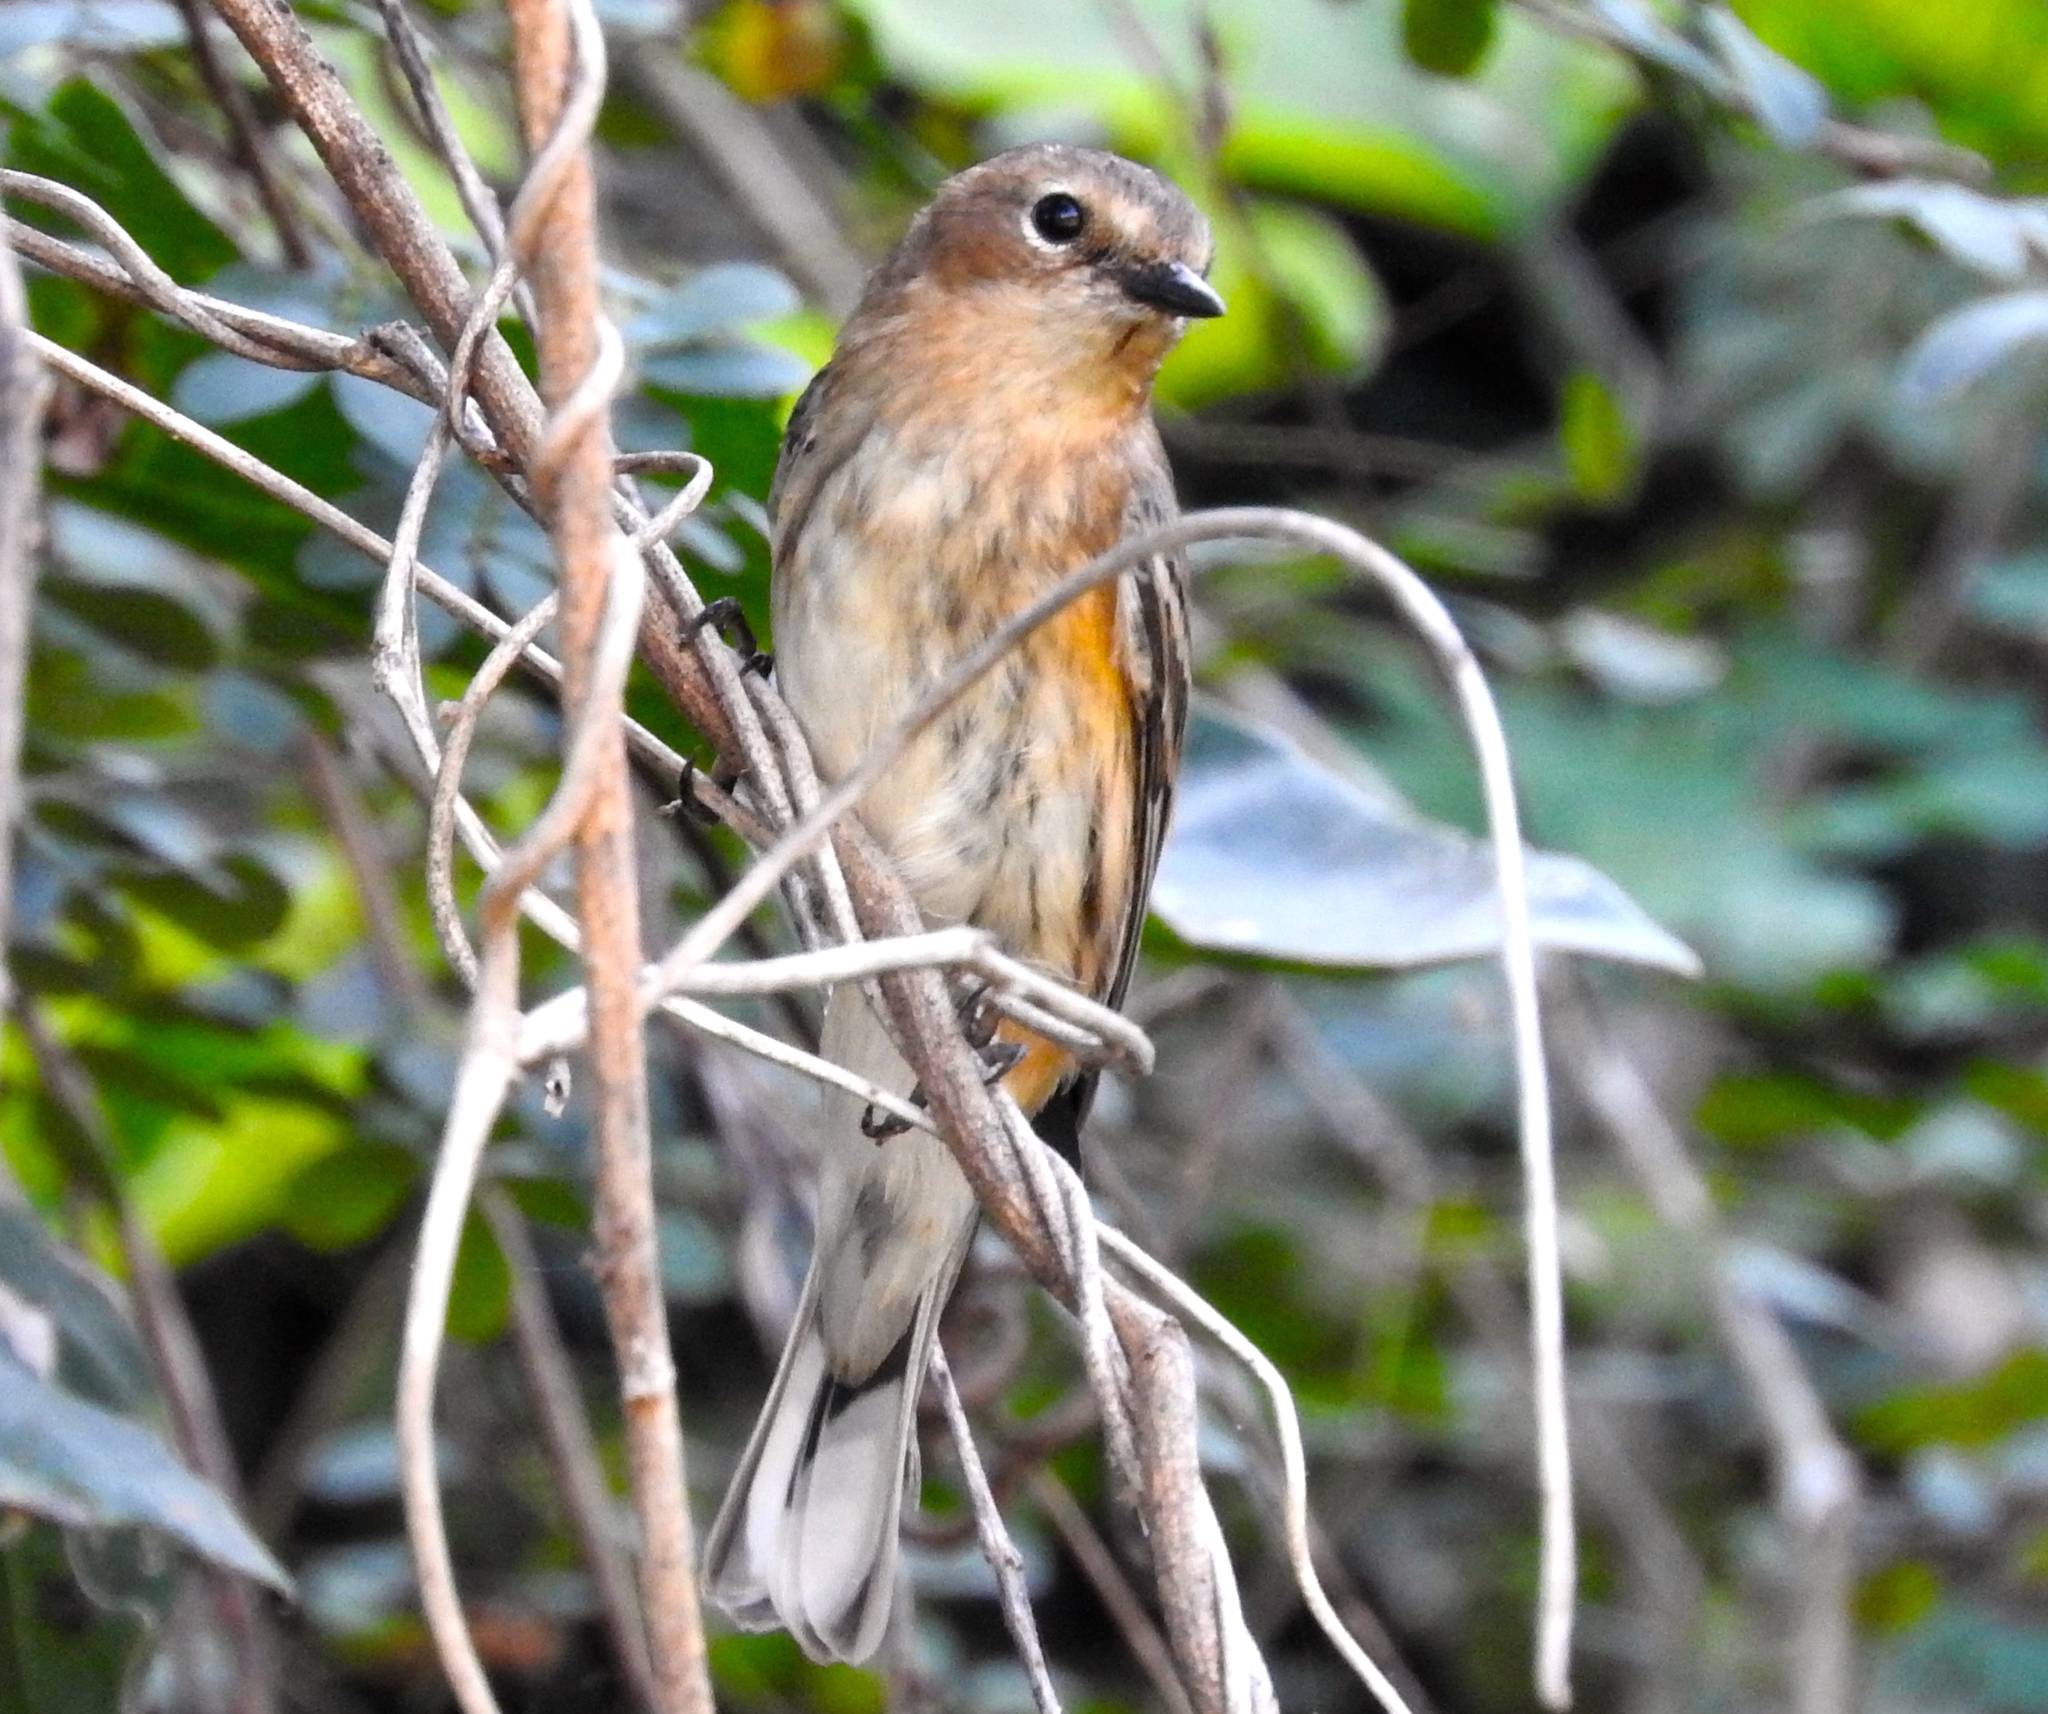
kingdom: Animalia
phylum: Chordata
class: Aves
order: Passeriformes
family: Parulidae
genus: Setophaga
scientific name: Setophaga coronata
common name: Myrtle warbler
